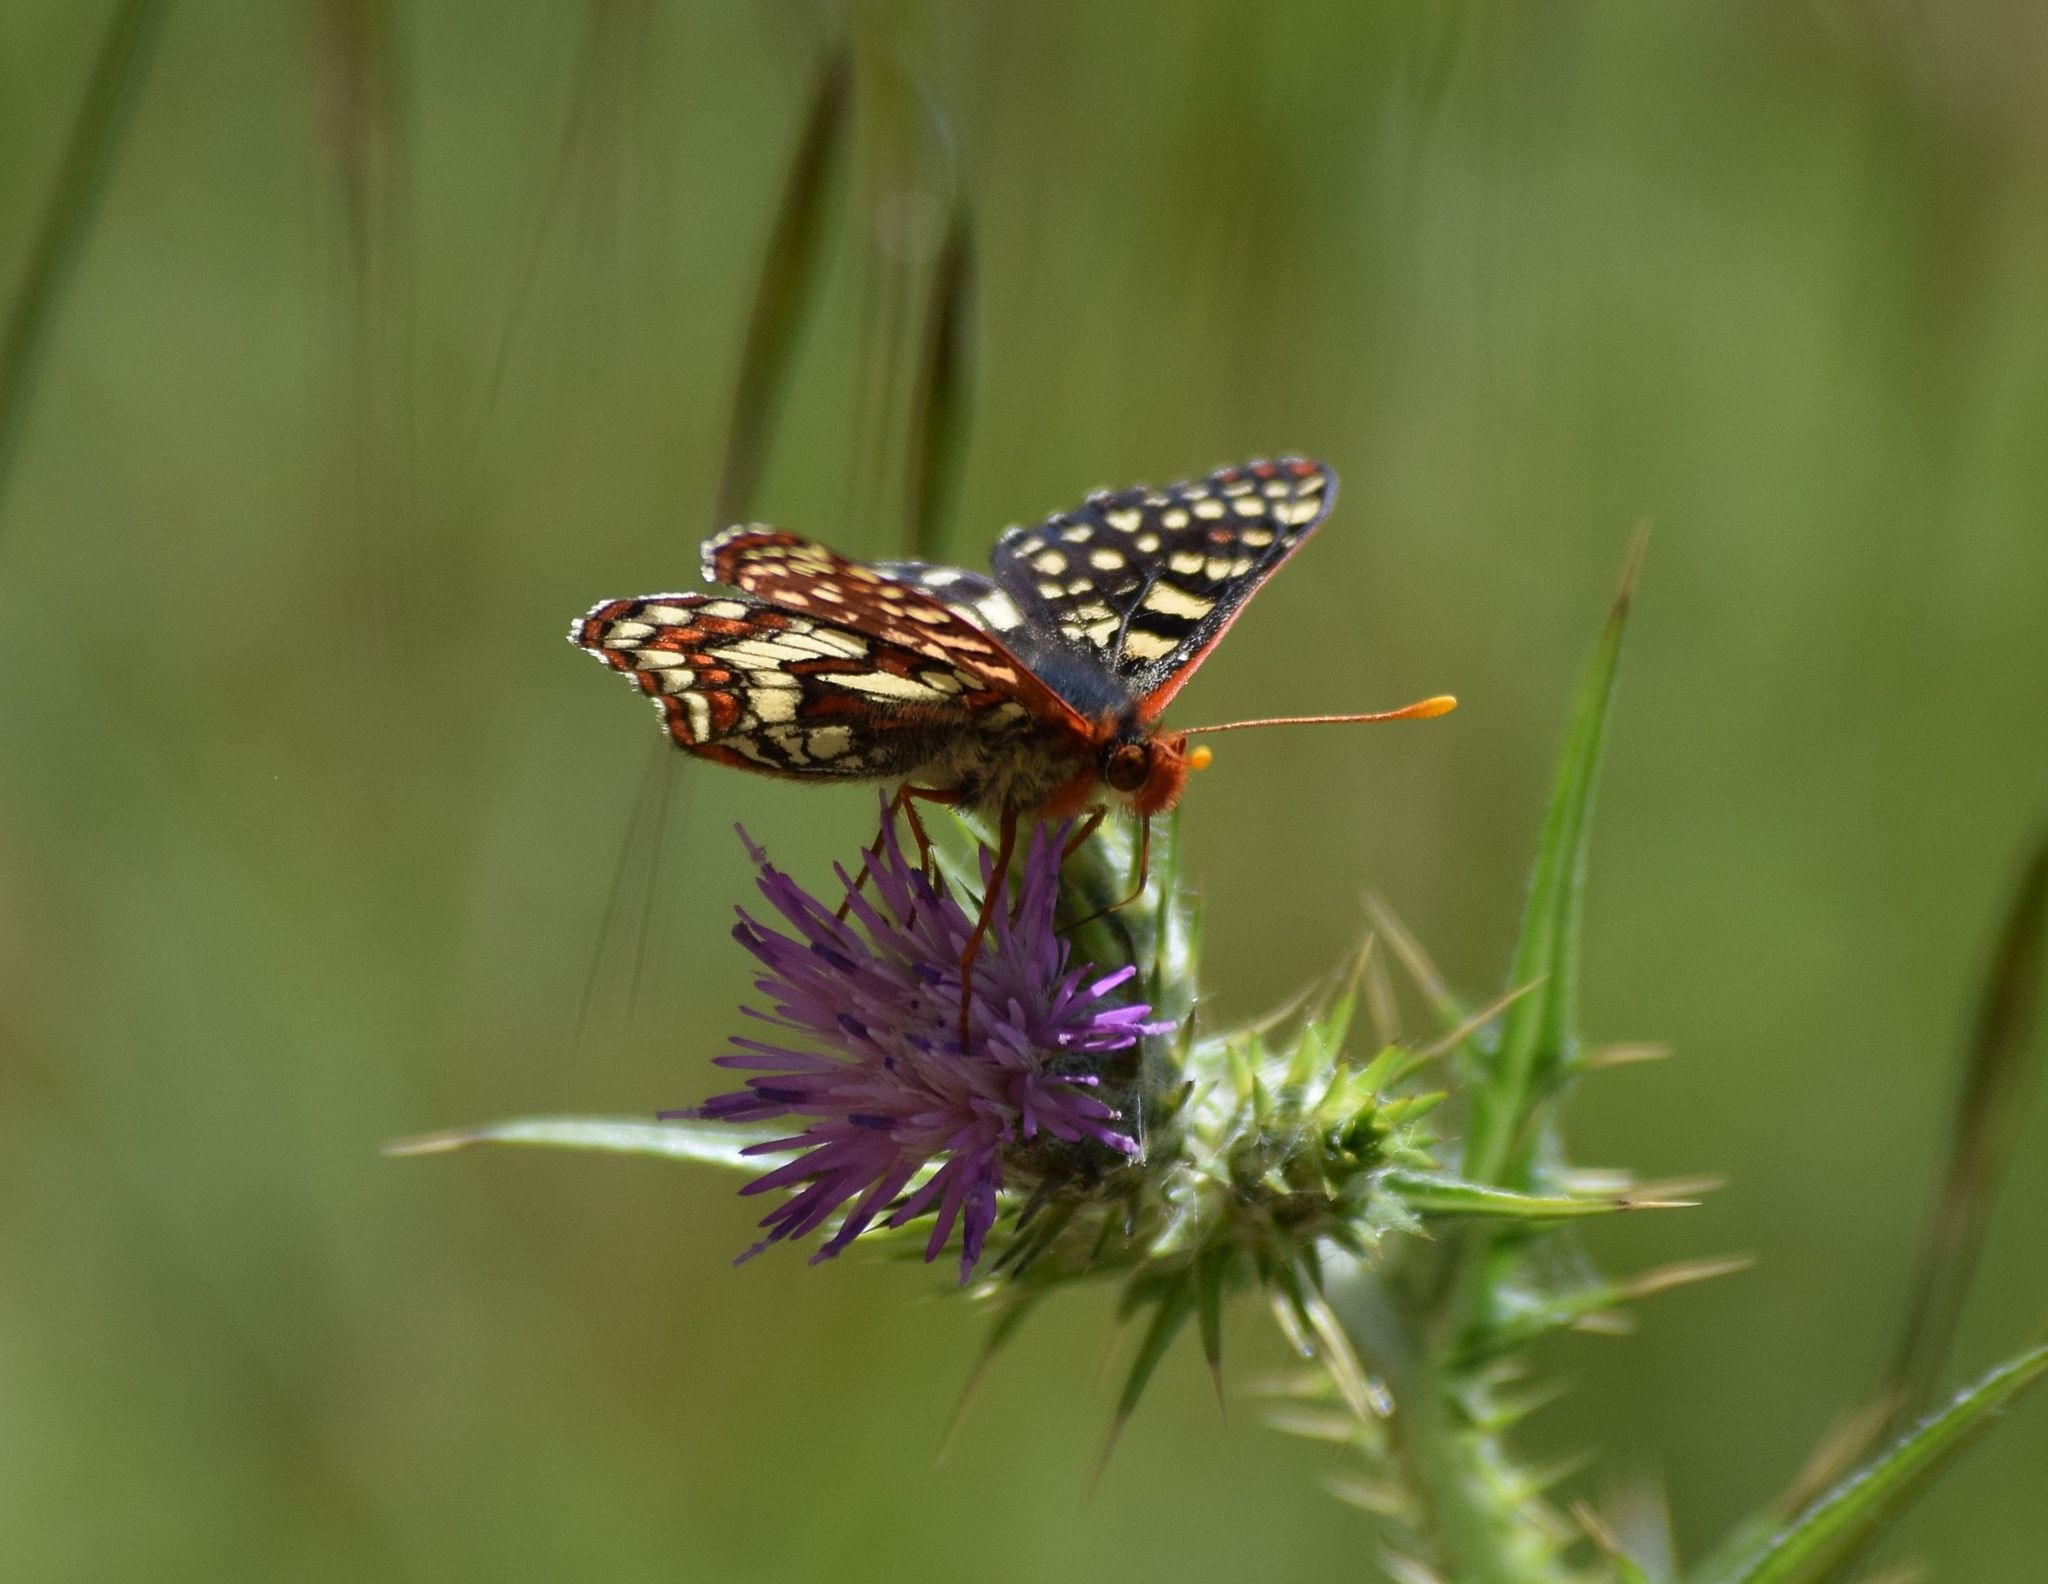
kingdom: Animalia
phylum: Arthropoda
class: Insecta
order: Lepidoptera
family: Nymphalidae
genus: Occidryas
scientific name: Occidryas chalcedona
